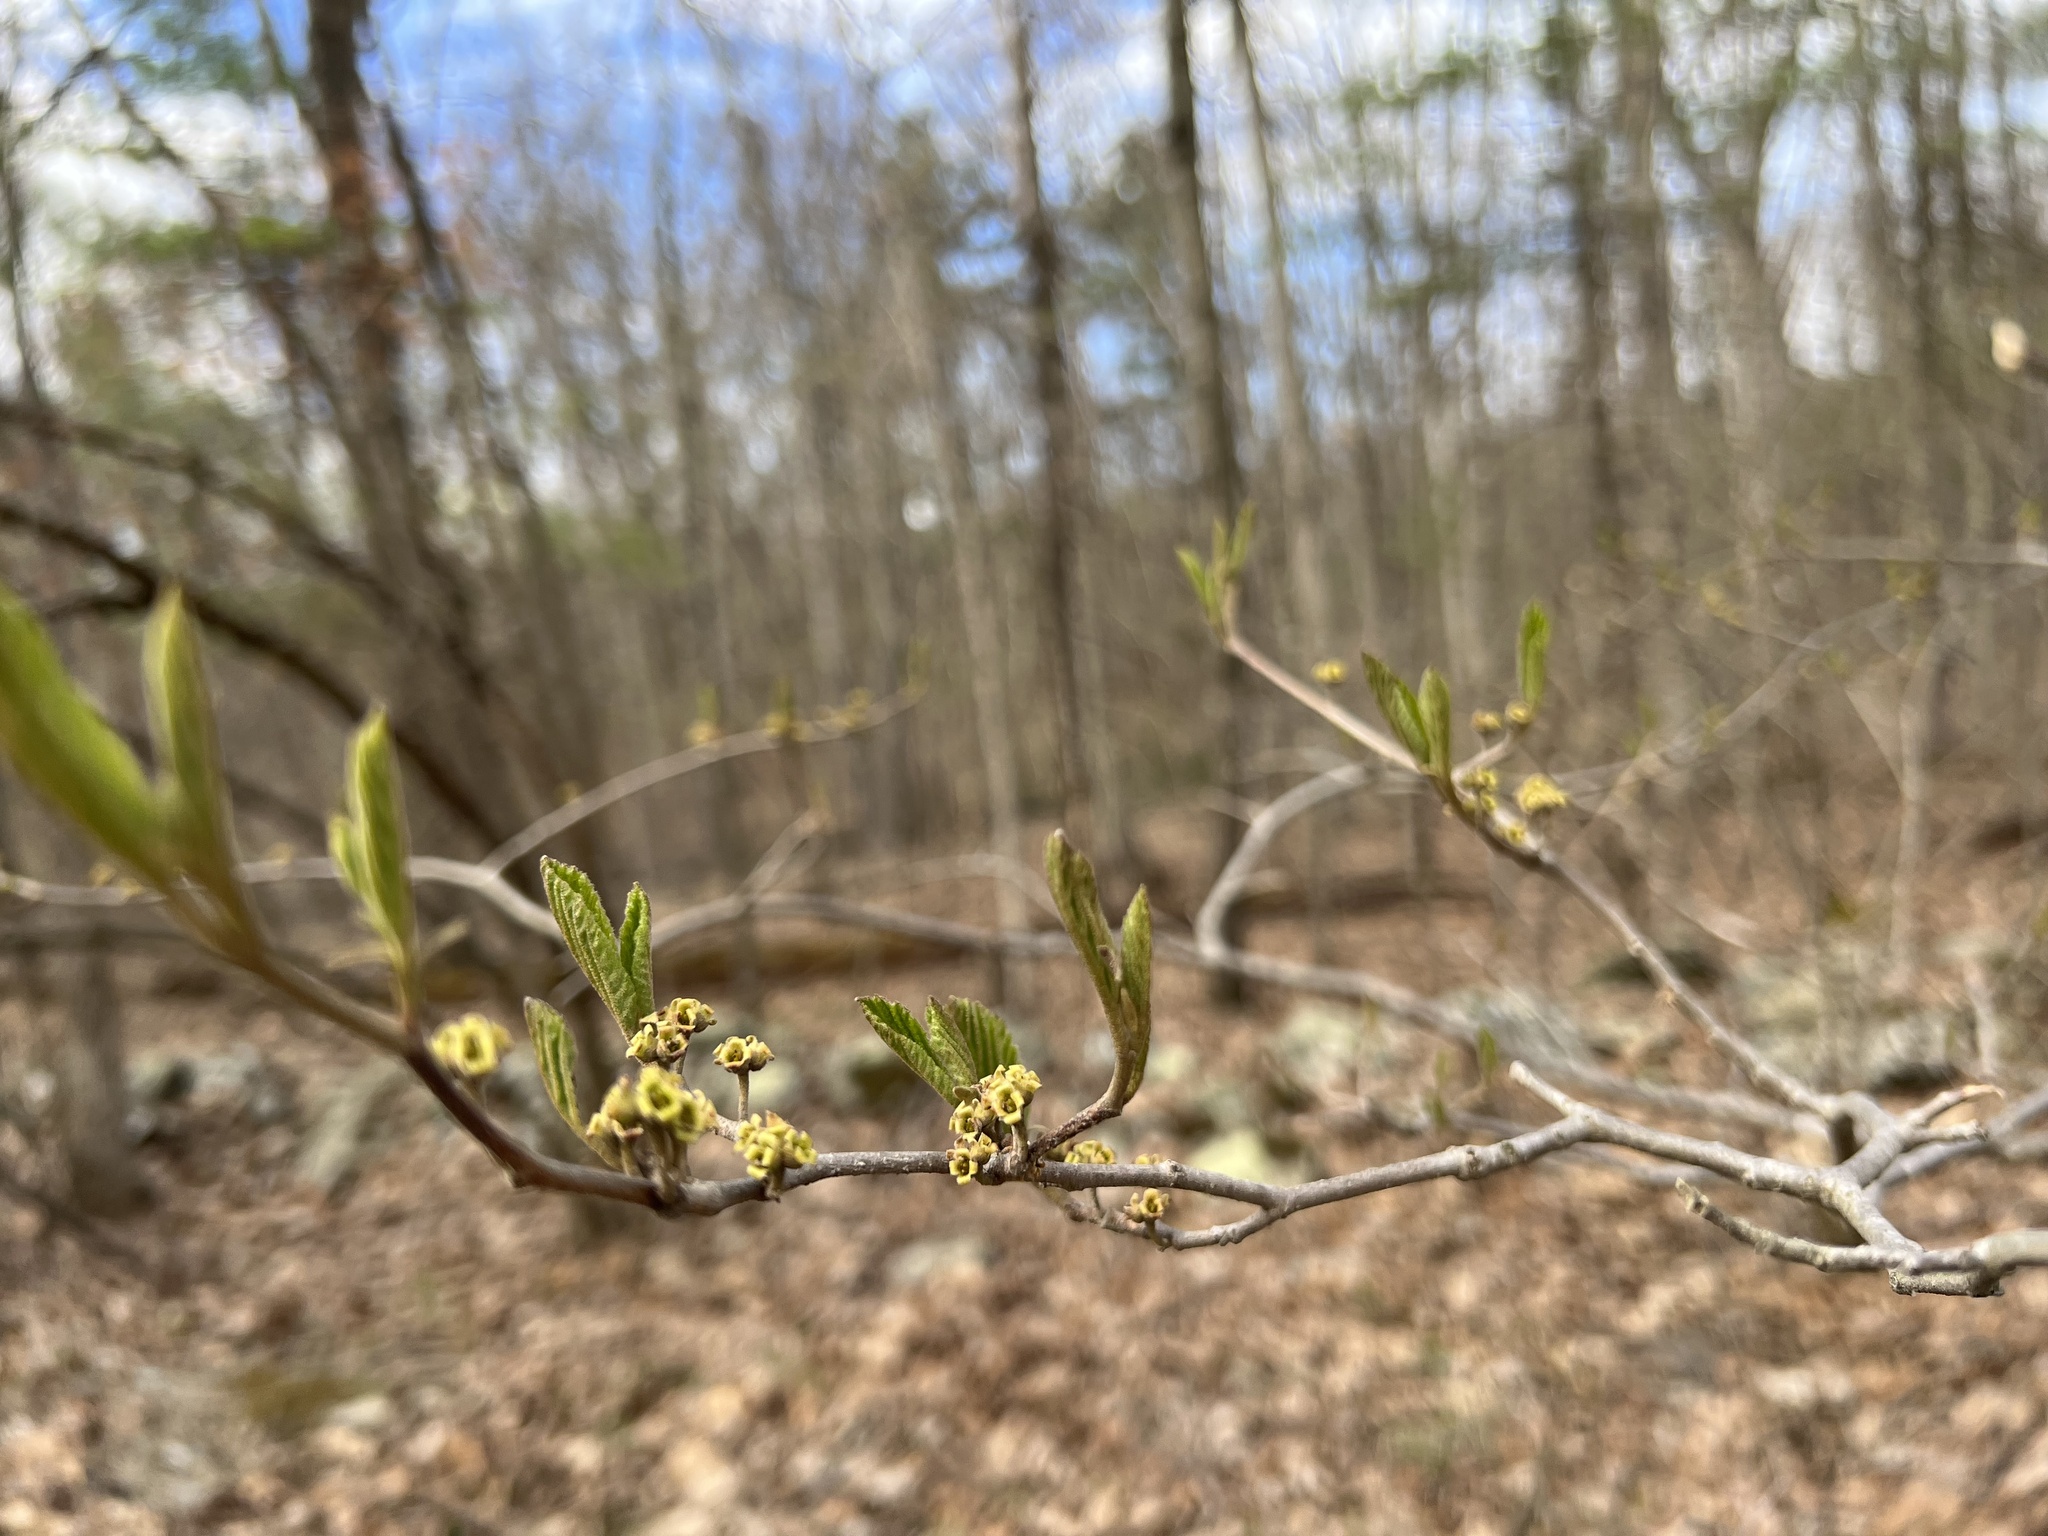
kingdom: Plantae
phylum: Tracheophyta
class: Magnoliopsida
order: Saxifragales
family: Hamamelidaceae
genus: Hamamelis
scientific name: Hamamelis virginiana
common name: Witch-hazel
